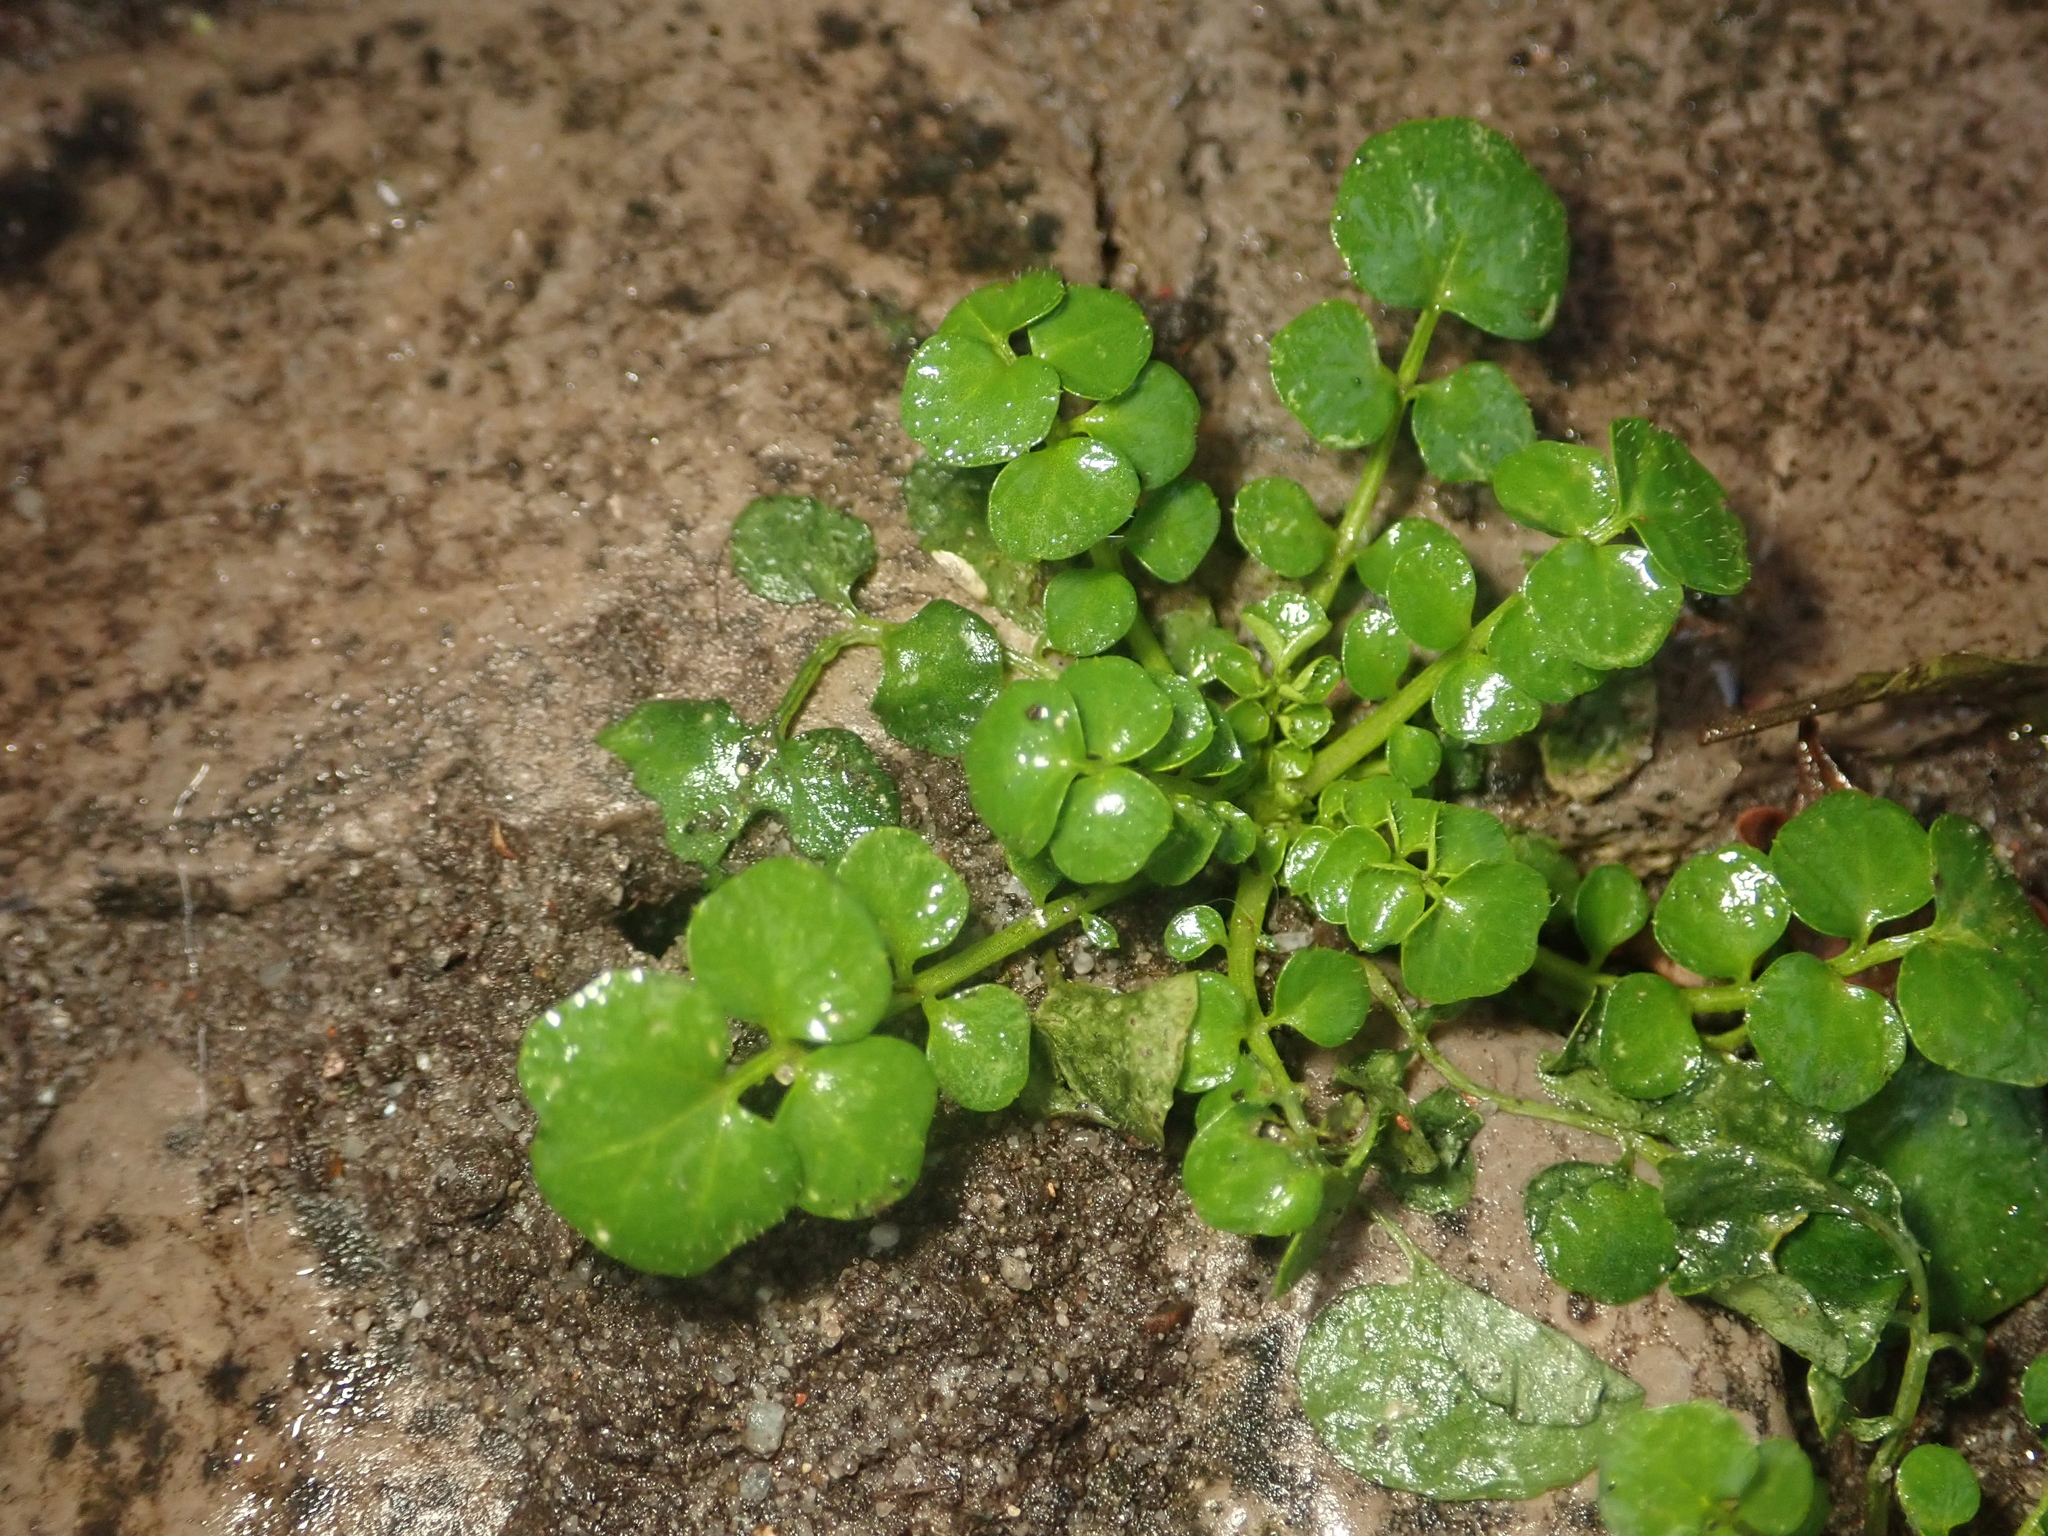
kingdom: Plantae
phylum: Tracheophyta
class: Magnoliopsida
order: Brassicales
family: Brassicaceae
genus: Cardamine
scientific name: Cardamine hirsuta
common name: Hairy bittercress
